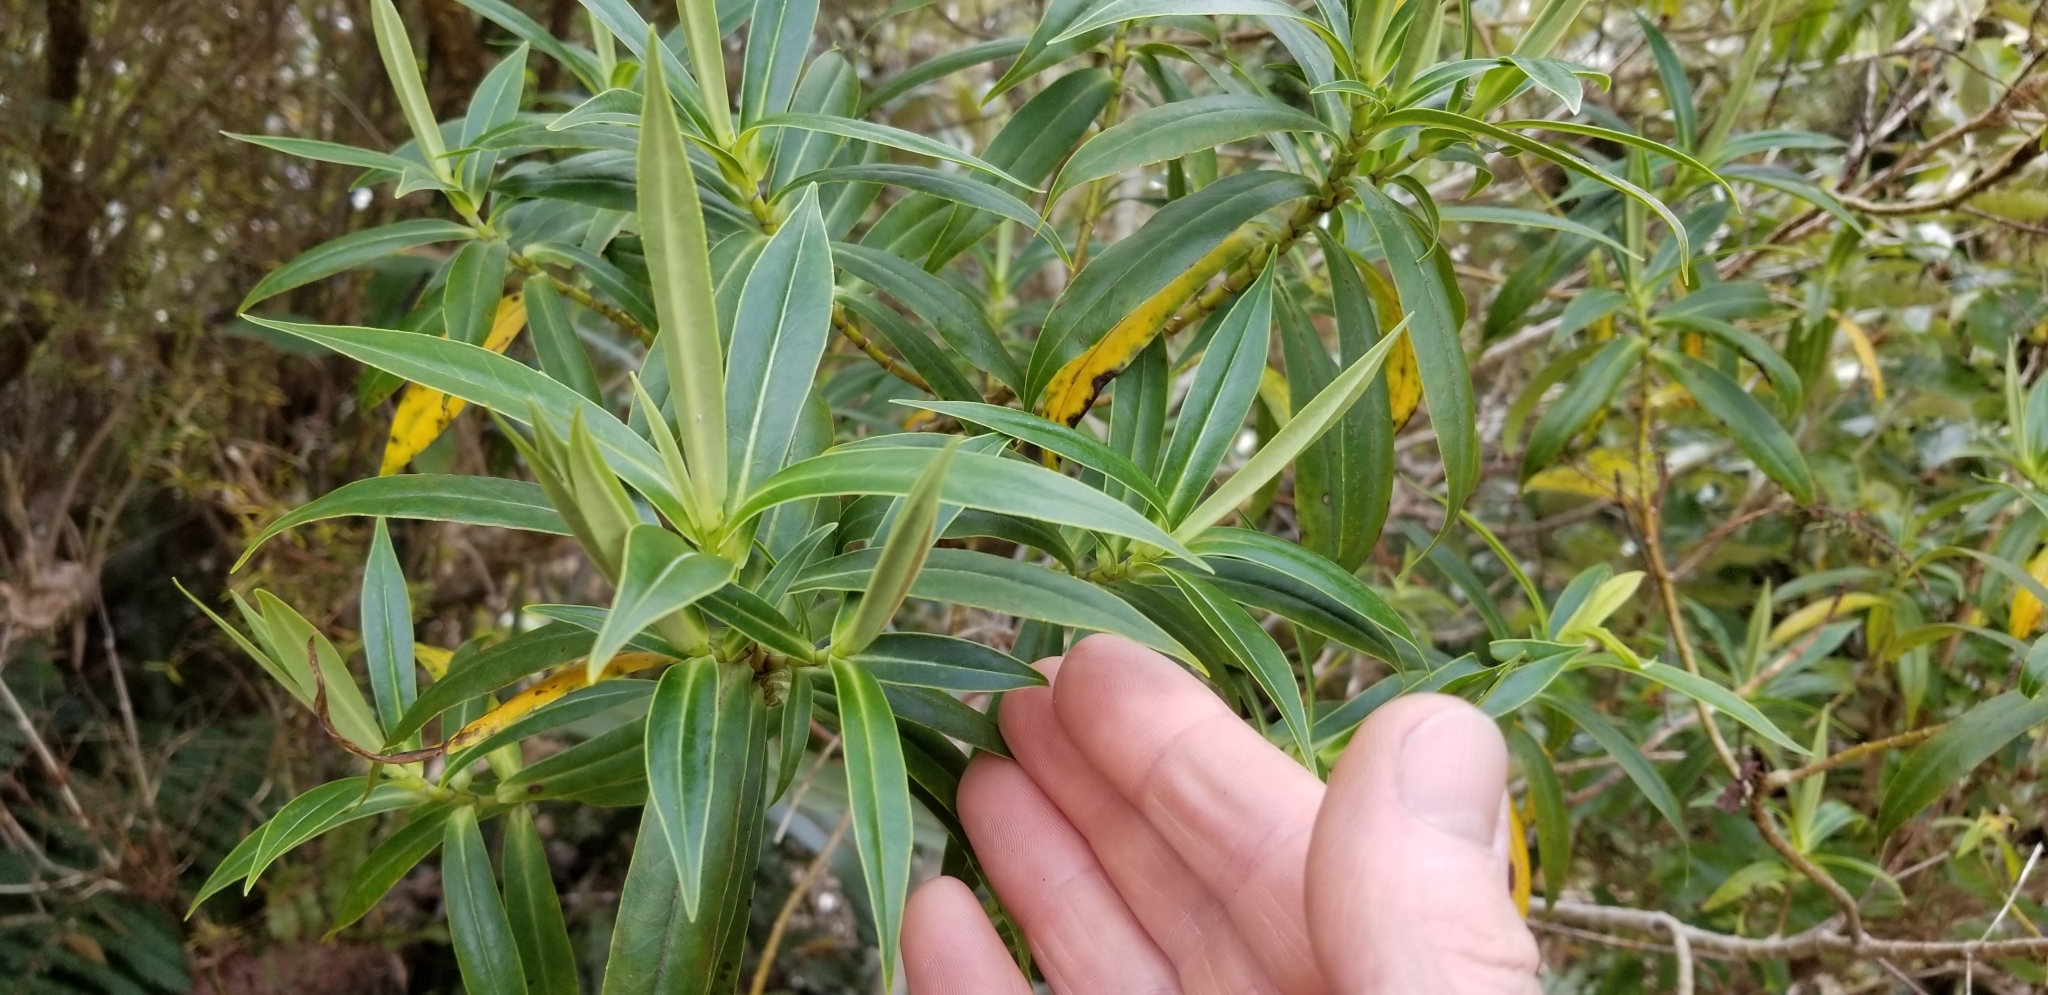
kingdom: Plantae
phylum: Tracheophyta
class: Magnoliopsida
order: Lamiales
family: Plantaginaceae
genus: Veronica
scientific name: Veronica salicifolia
